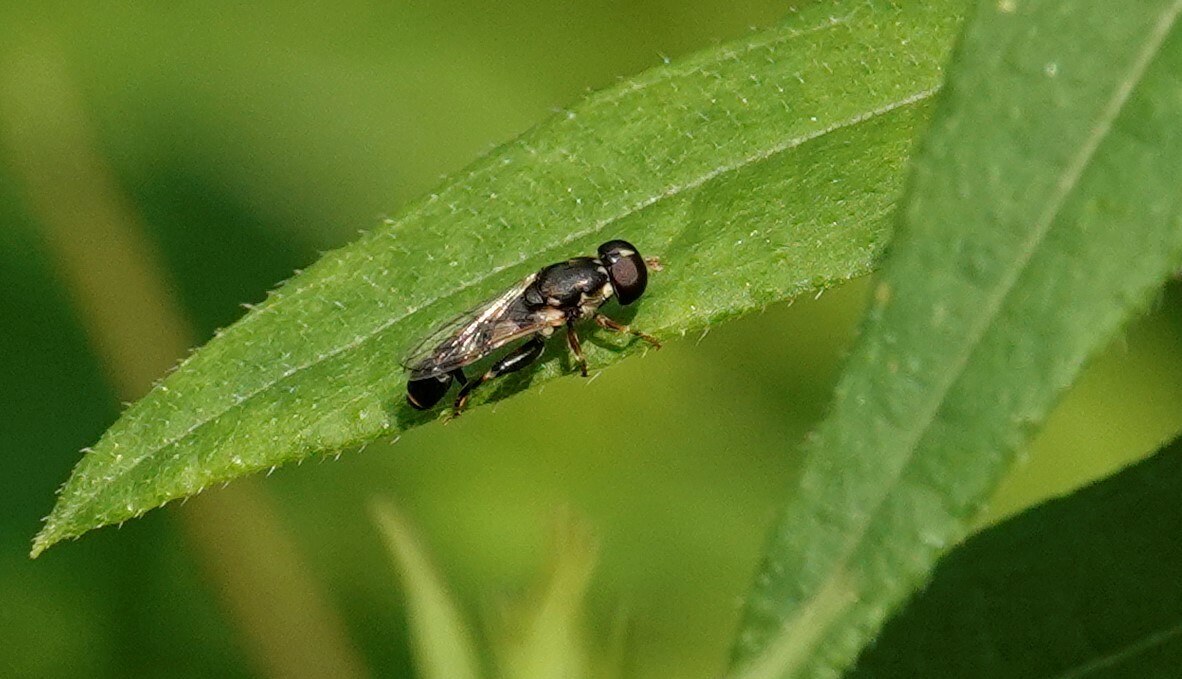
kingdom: Animalia
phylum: Arthropoda
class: Insecta
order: Diptera
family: Syrphidae
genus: Syritta
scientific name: Syritta pipiens
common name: Hover fly
